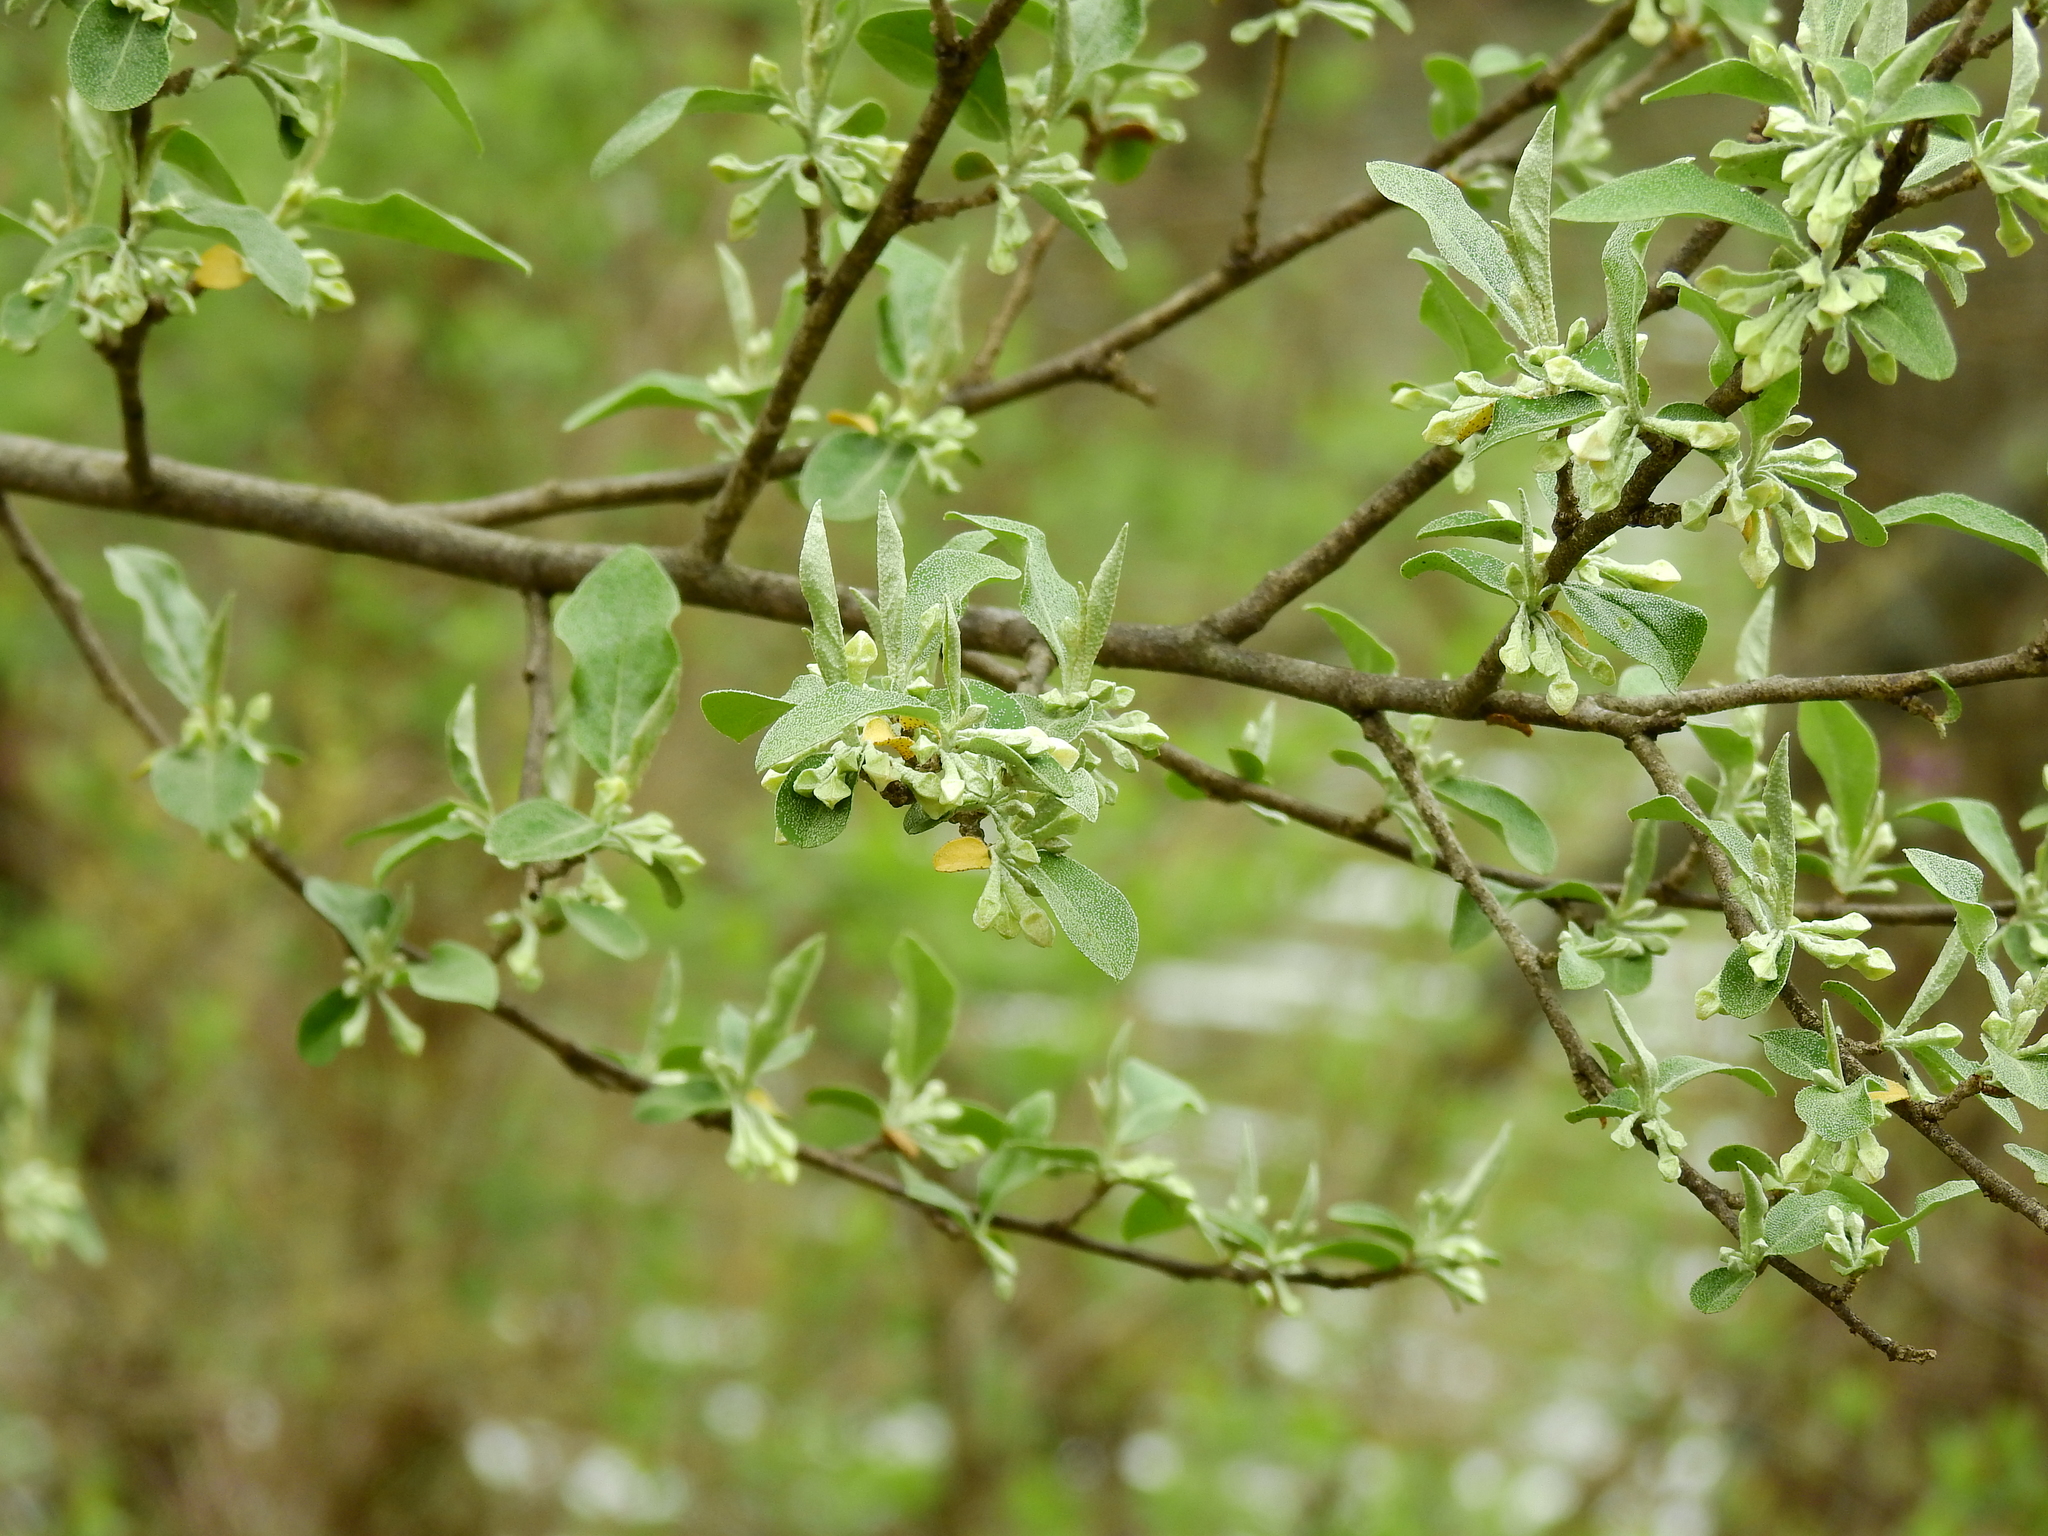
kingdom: Plantae
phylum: Tracheophyta
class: Magnoliopsida
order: Rosales
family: Elaeagnaceae
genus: Elaeagnus
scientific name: Elaeagnus umbellata
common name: Autumn olive
